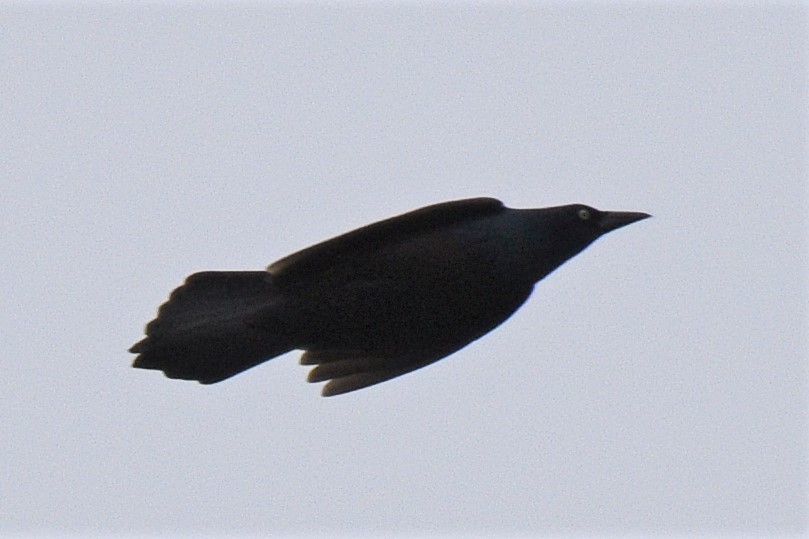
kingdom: Animalia
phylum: Chordata
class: Aves
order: Passeriformes
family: Icteridae
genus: Quiscalus
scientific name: Quiscalus quiscula
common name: Common grackle
